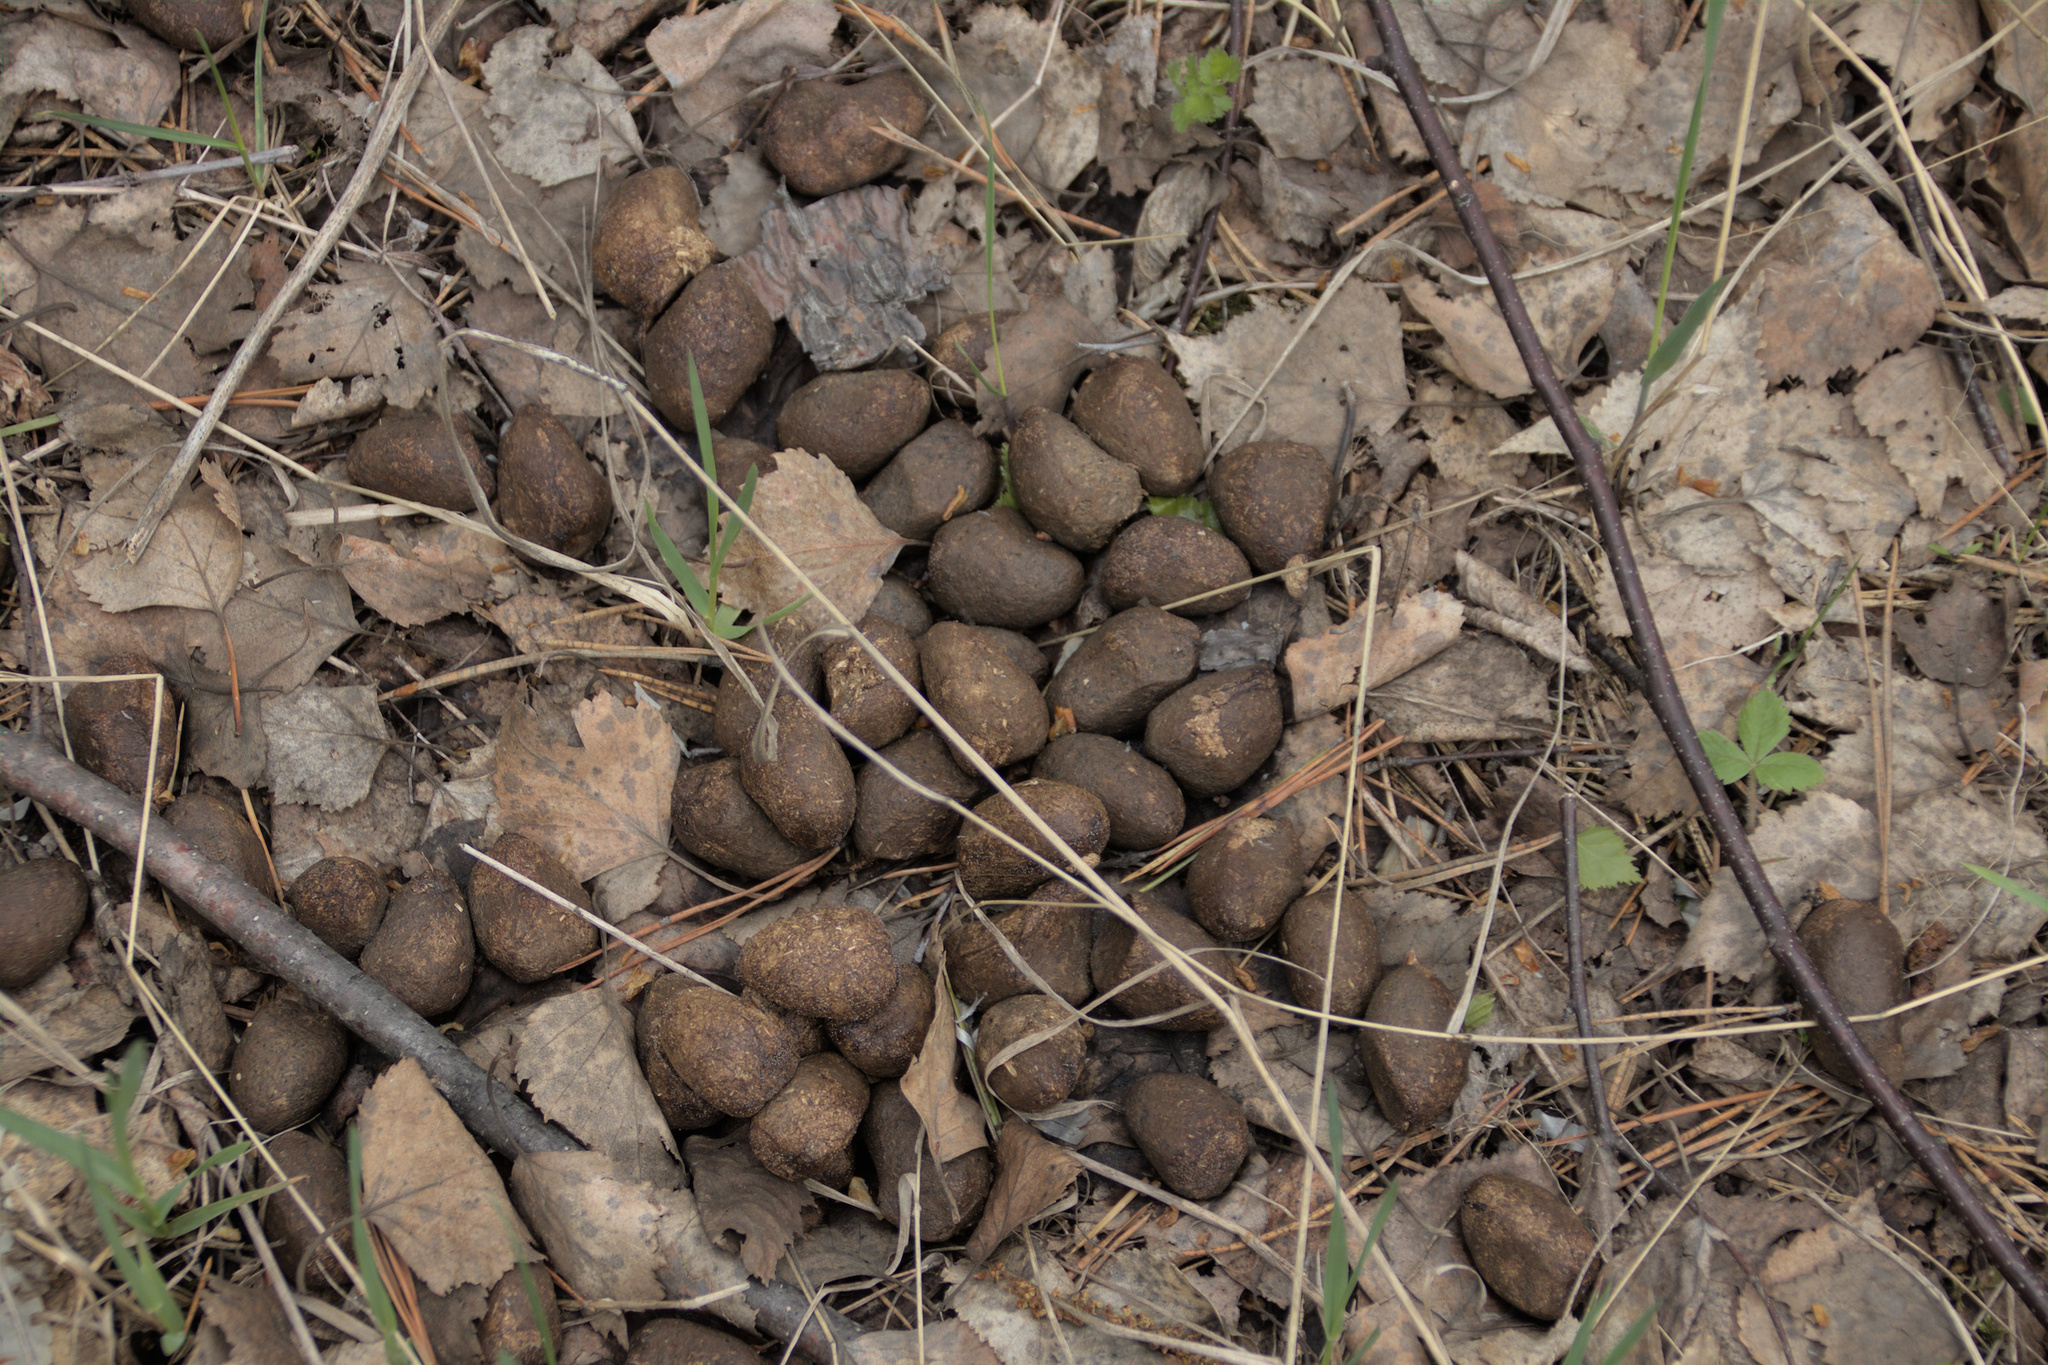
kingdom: Animalia
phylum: Chordata
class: Mammalia
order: Artiodactyla
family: Cervidae
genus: Alces
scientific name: Alces alces
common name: Moose
